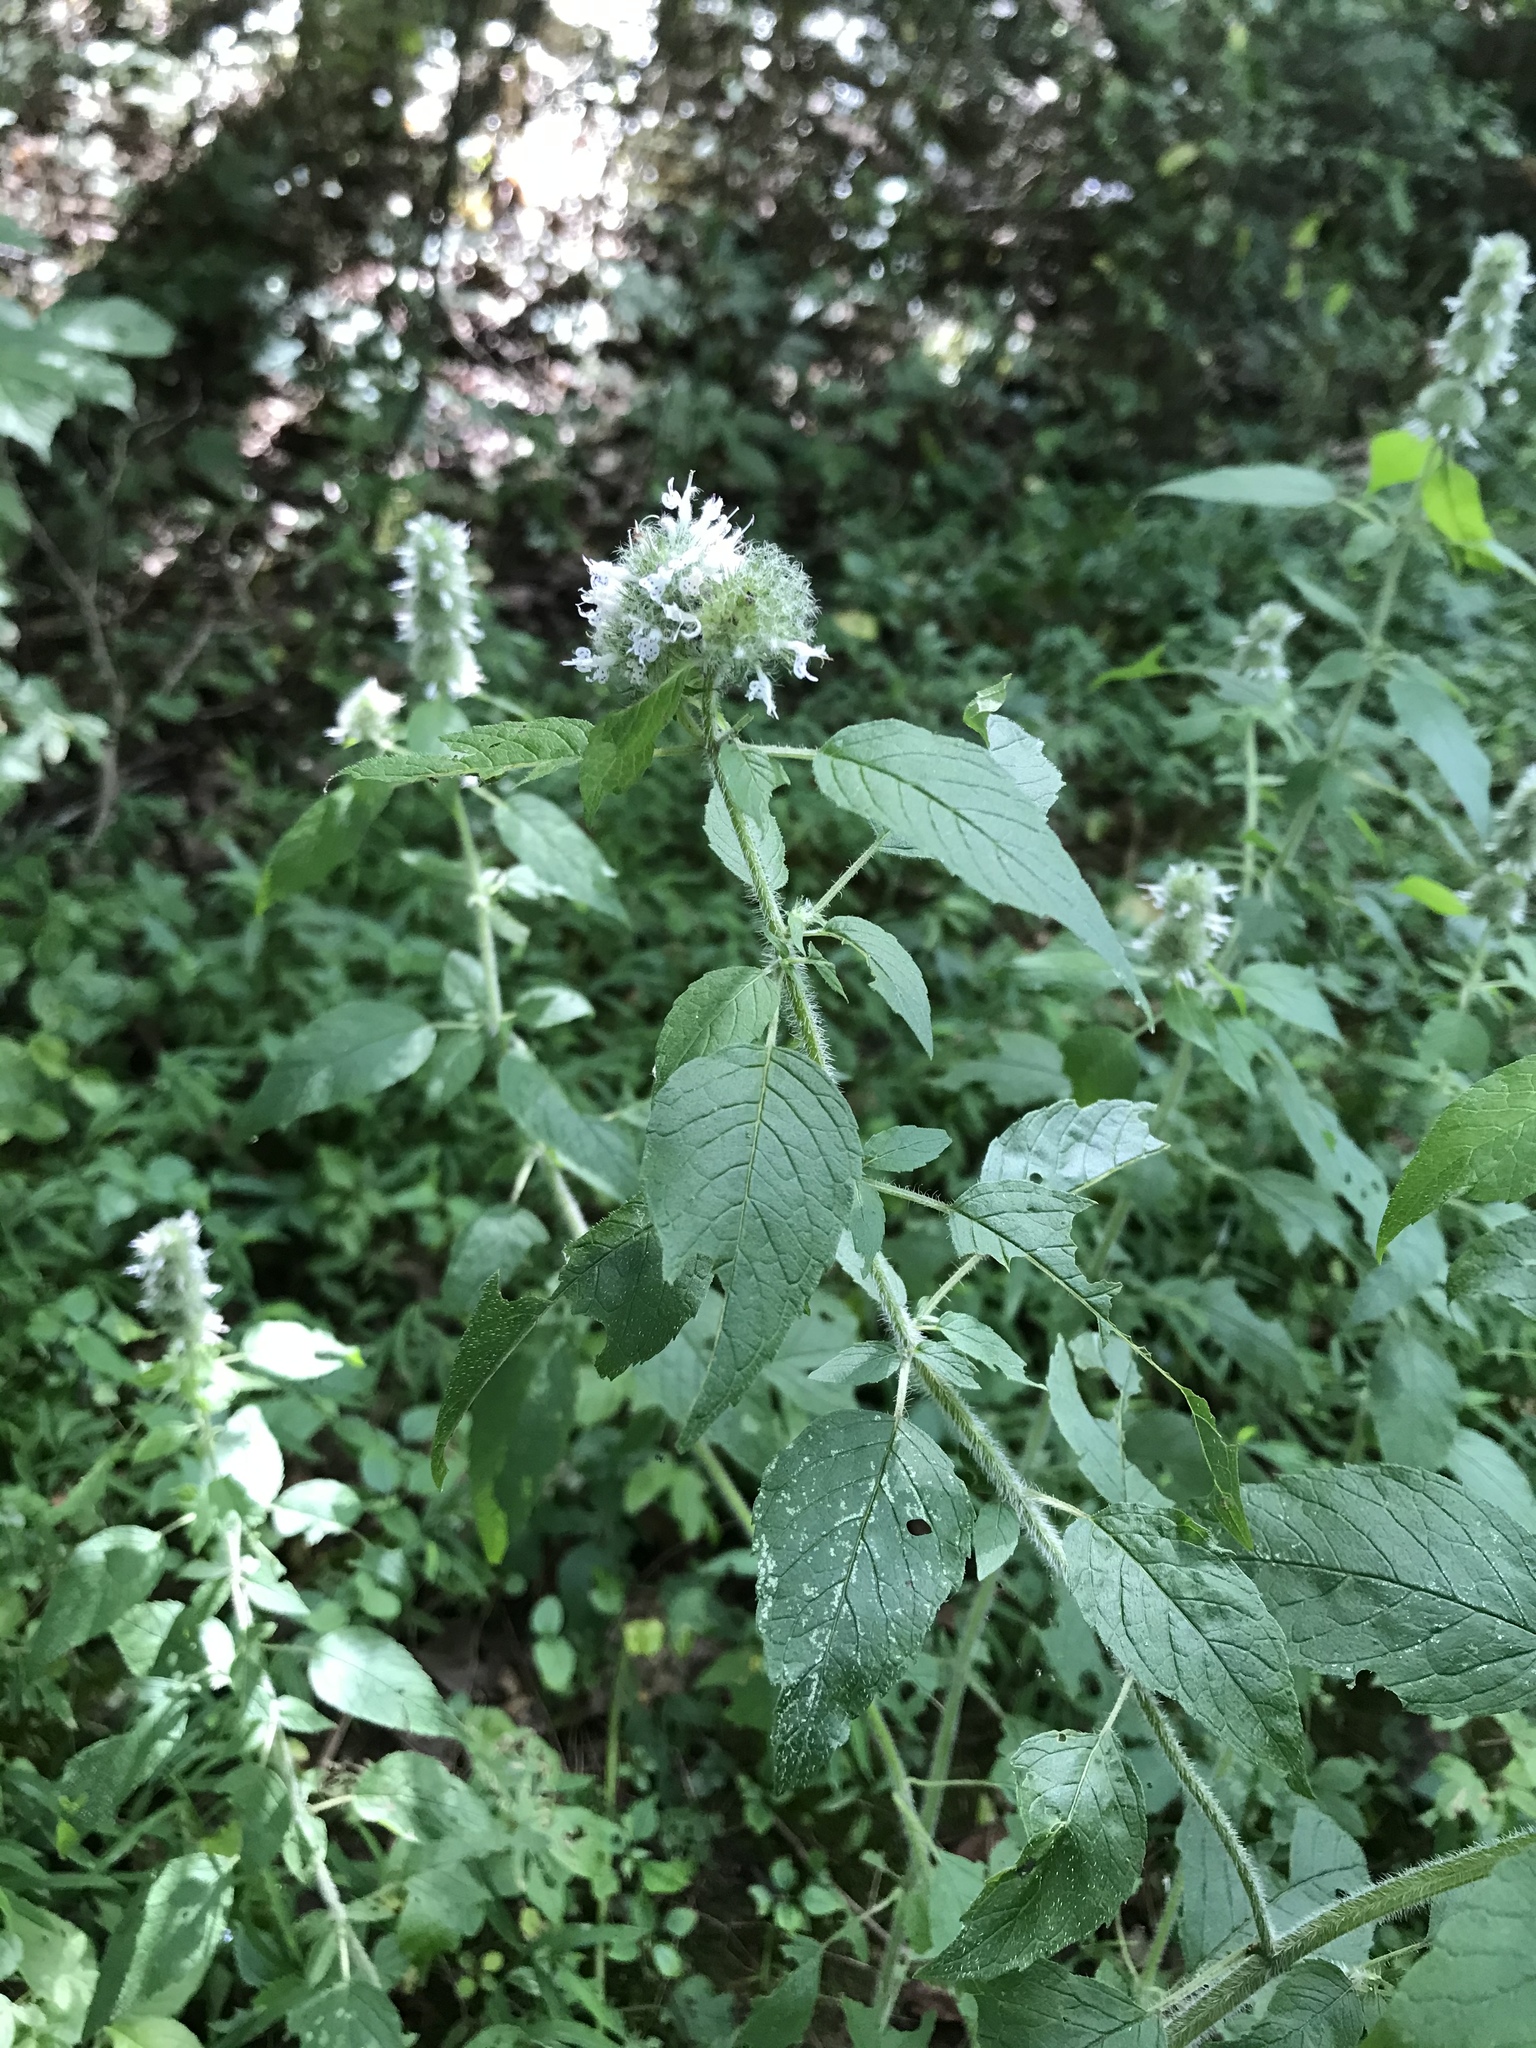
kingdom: Plantae
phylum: Tracheophyta
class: Magnoliopsida
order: Lamiales
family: Lamiaceae
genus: Blephilia
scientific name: Blephilia hirsuta
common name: Hairy blephilia
